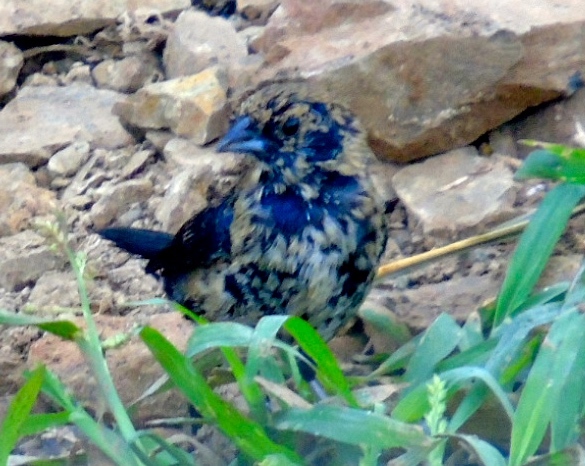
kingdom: Animalia
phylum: Chordata
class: Aves
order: Passeriformes
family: Thraupidae
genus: Volatinia
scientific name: Volatinia jacarina
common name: Blue-black grassquit
